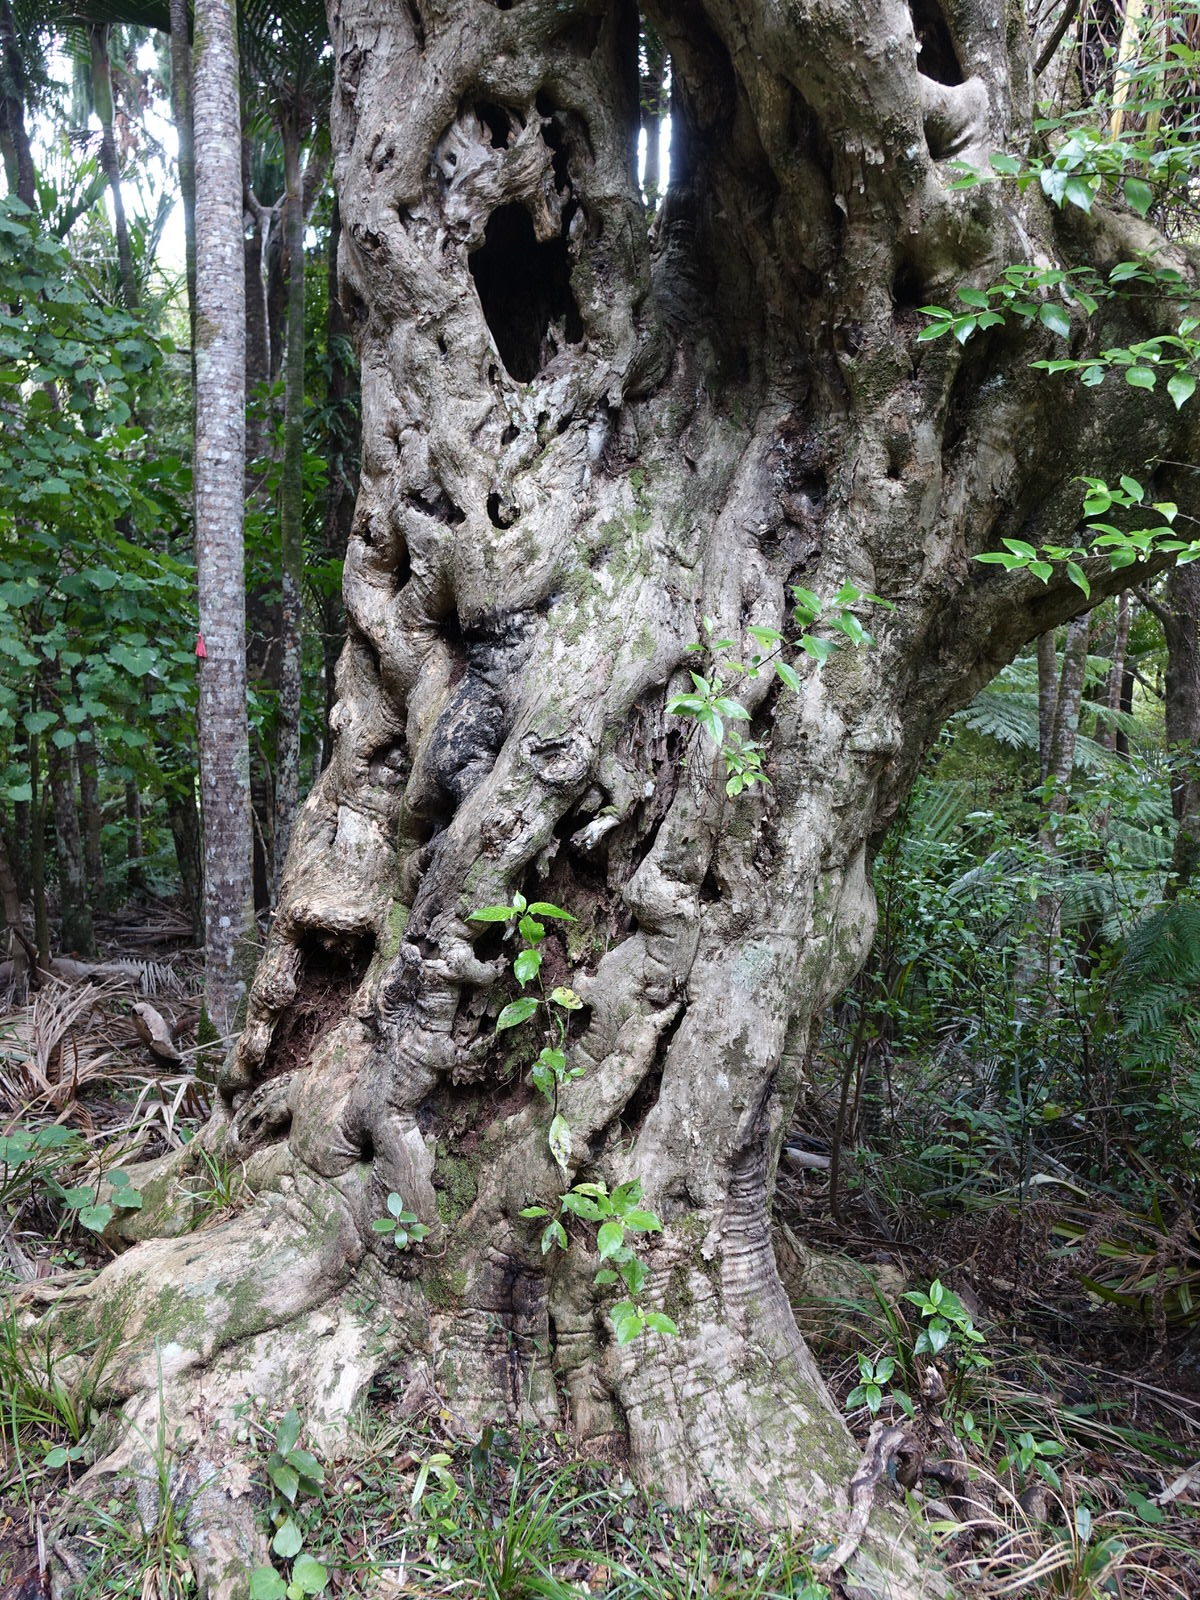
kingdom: Plantae
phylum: Tracheophyta
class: Magnoliopsida
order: Lamiales
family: Lamiaceae
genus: Vitex
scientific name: Vitex lucens
